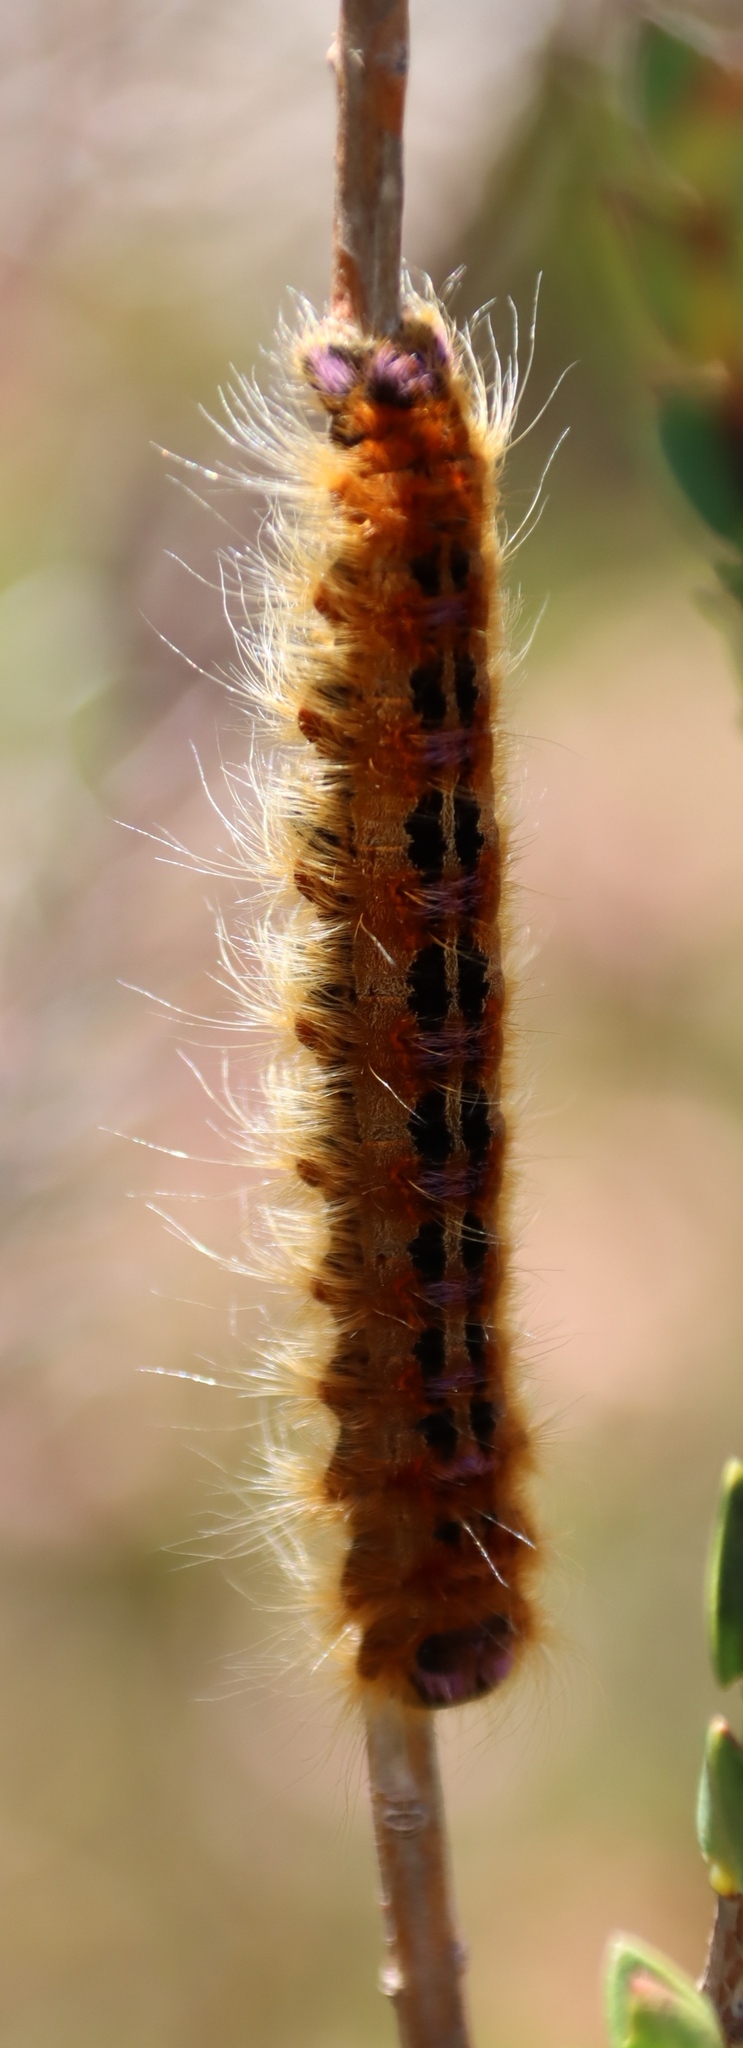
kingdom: Animalia
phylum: Arthropoda
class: Insecta
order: Lepidoptera
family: Lasiocampidae
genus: Eutricha
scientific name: Eutricha bifascia
